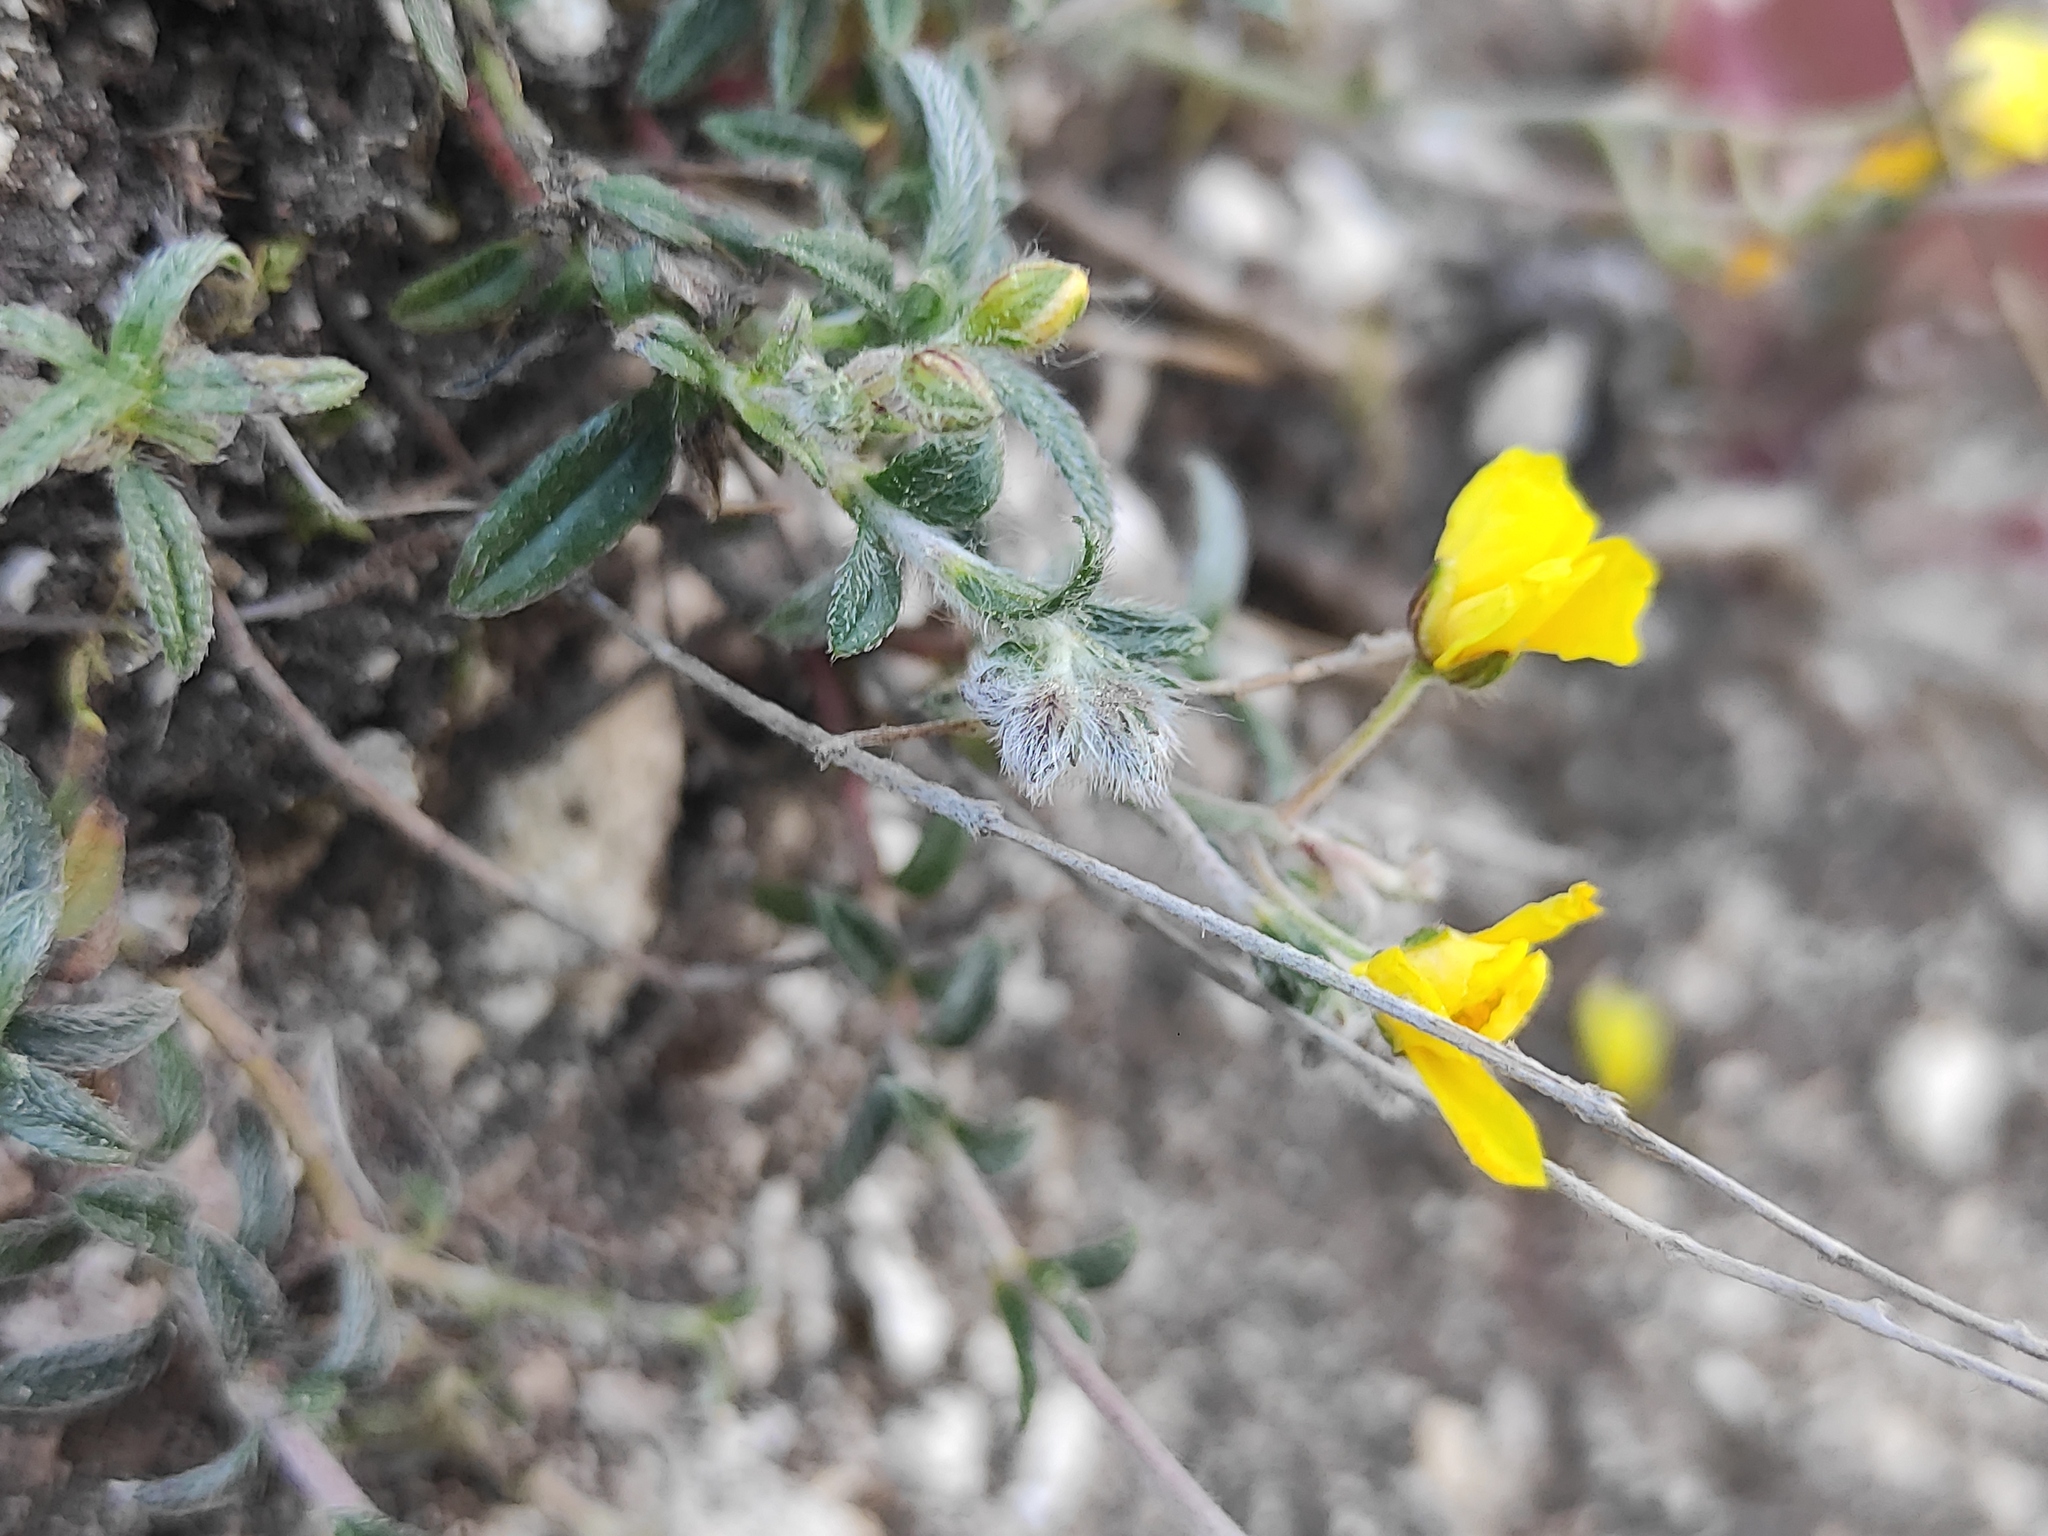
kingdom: Plantae
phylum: Tracheophyta
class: Magnoliopsida
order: Malvales
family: Cistaceae
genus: Helianthemum
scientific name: Helianthemum oelandicum
